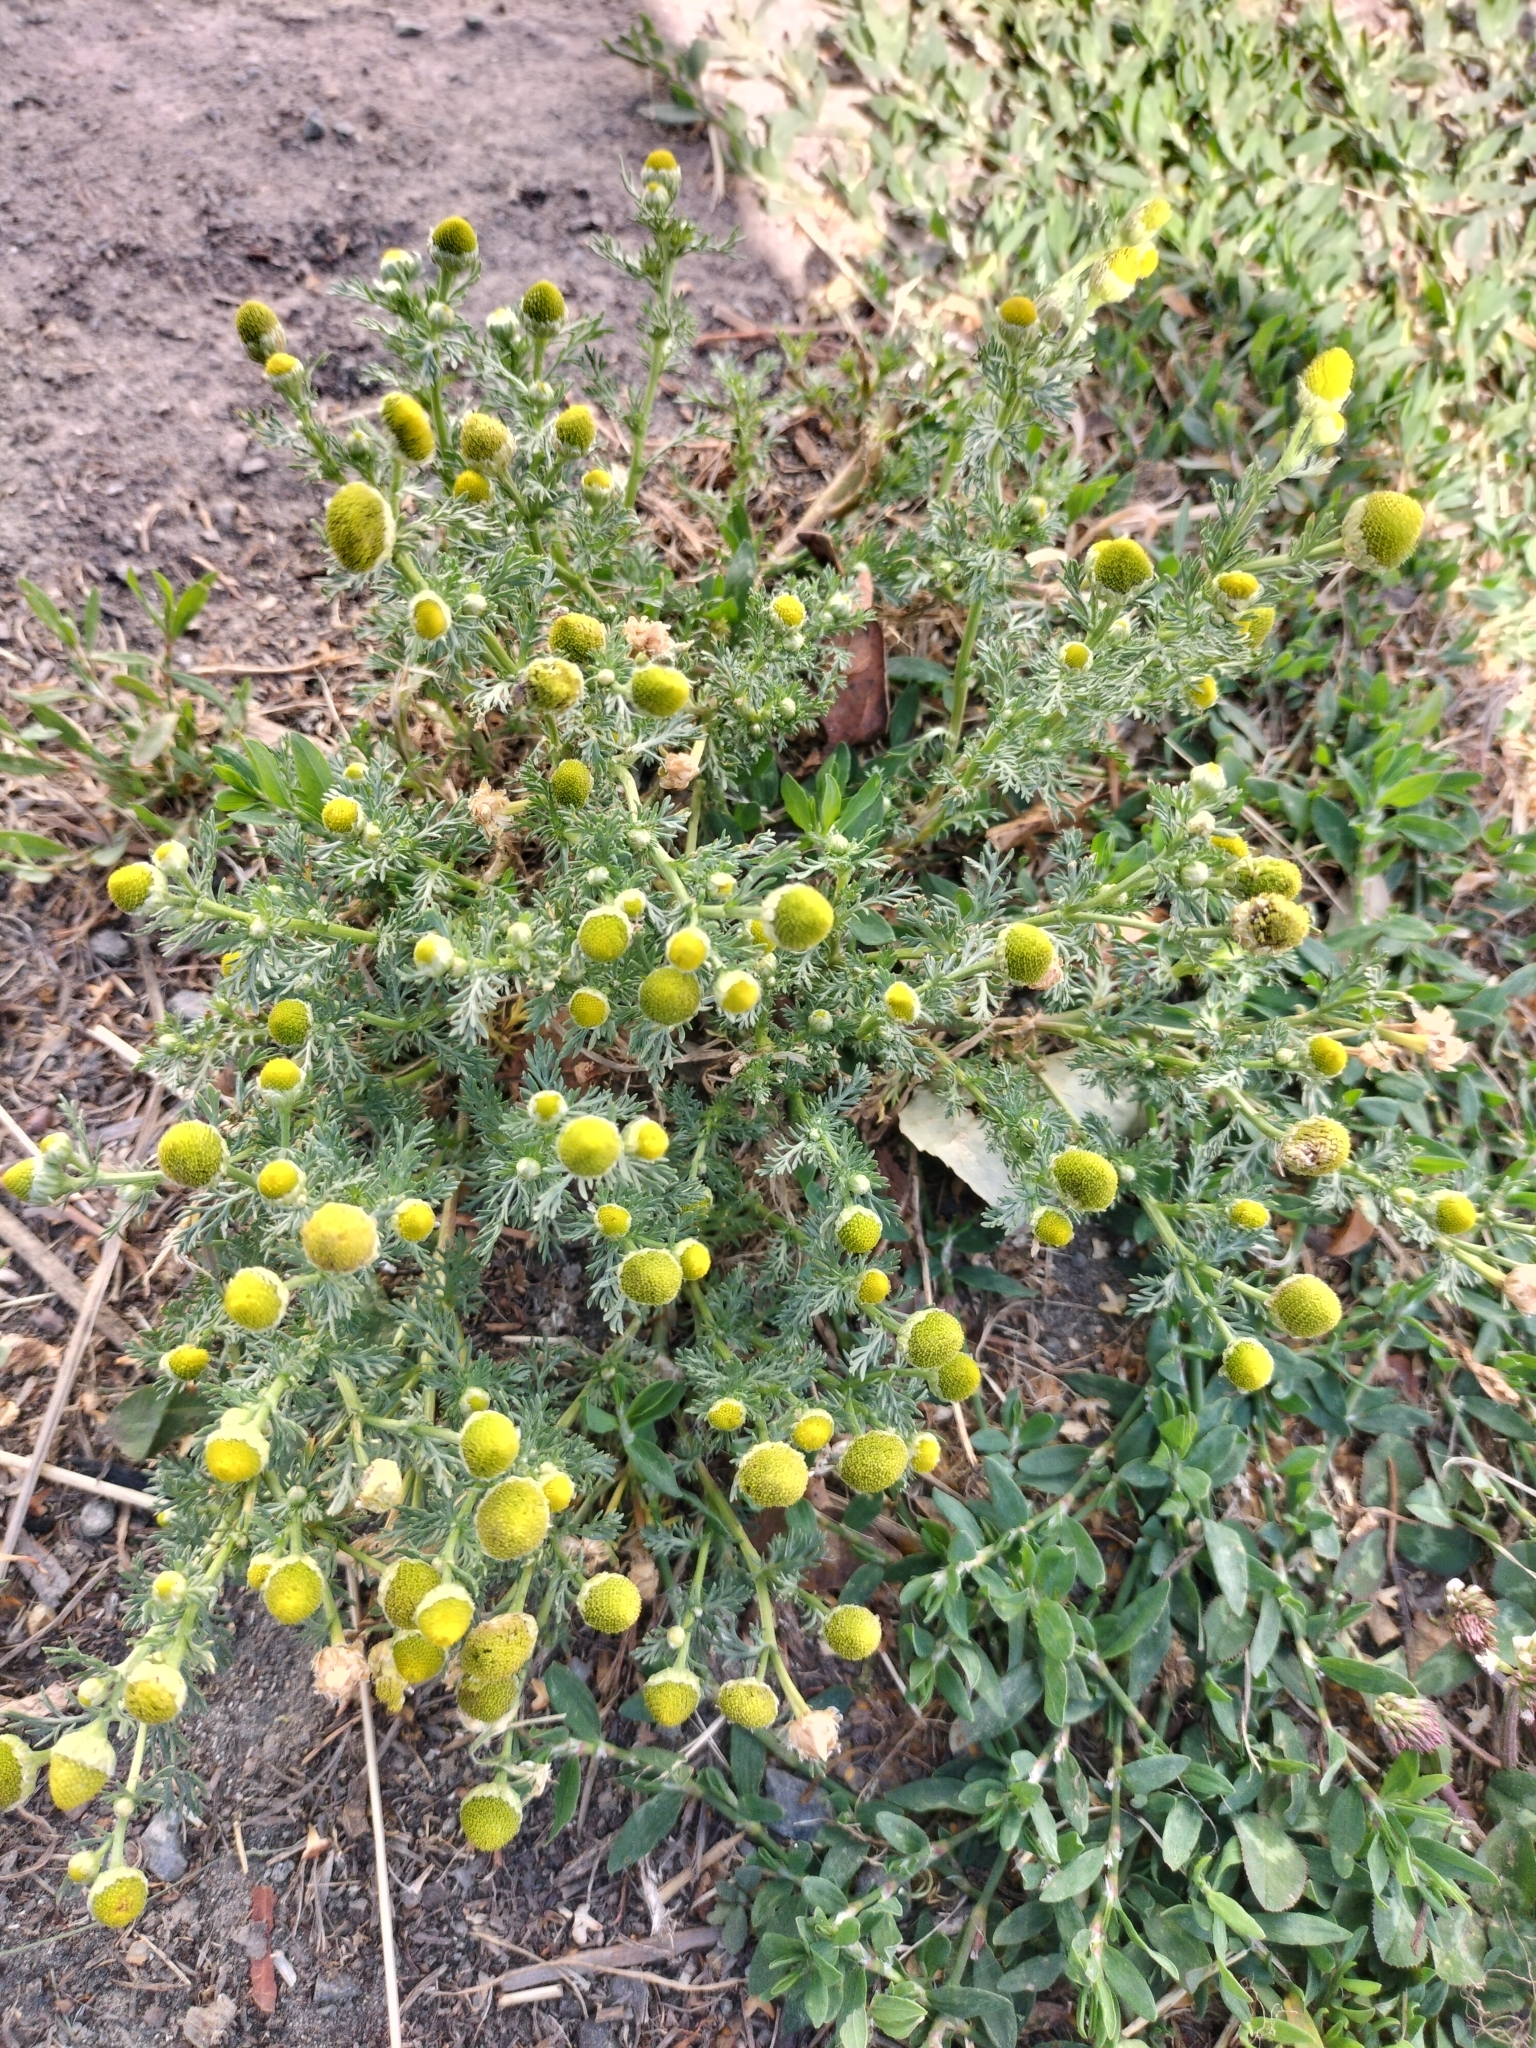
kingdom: Plantae
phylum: Tracheophyta
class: Magnoliopsida
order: Asterales
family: Asteraceae
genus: Matricaria
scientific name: Matricaria discoidea
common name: Disc mayweed
